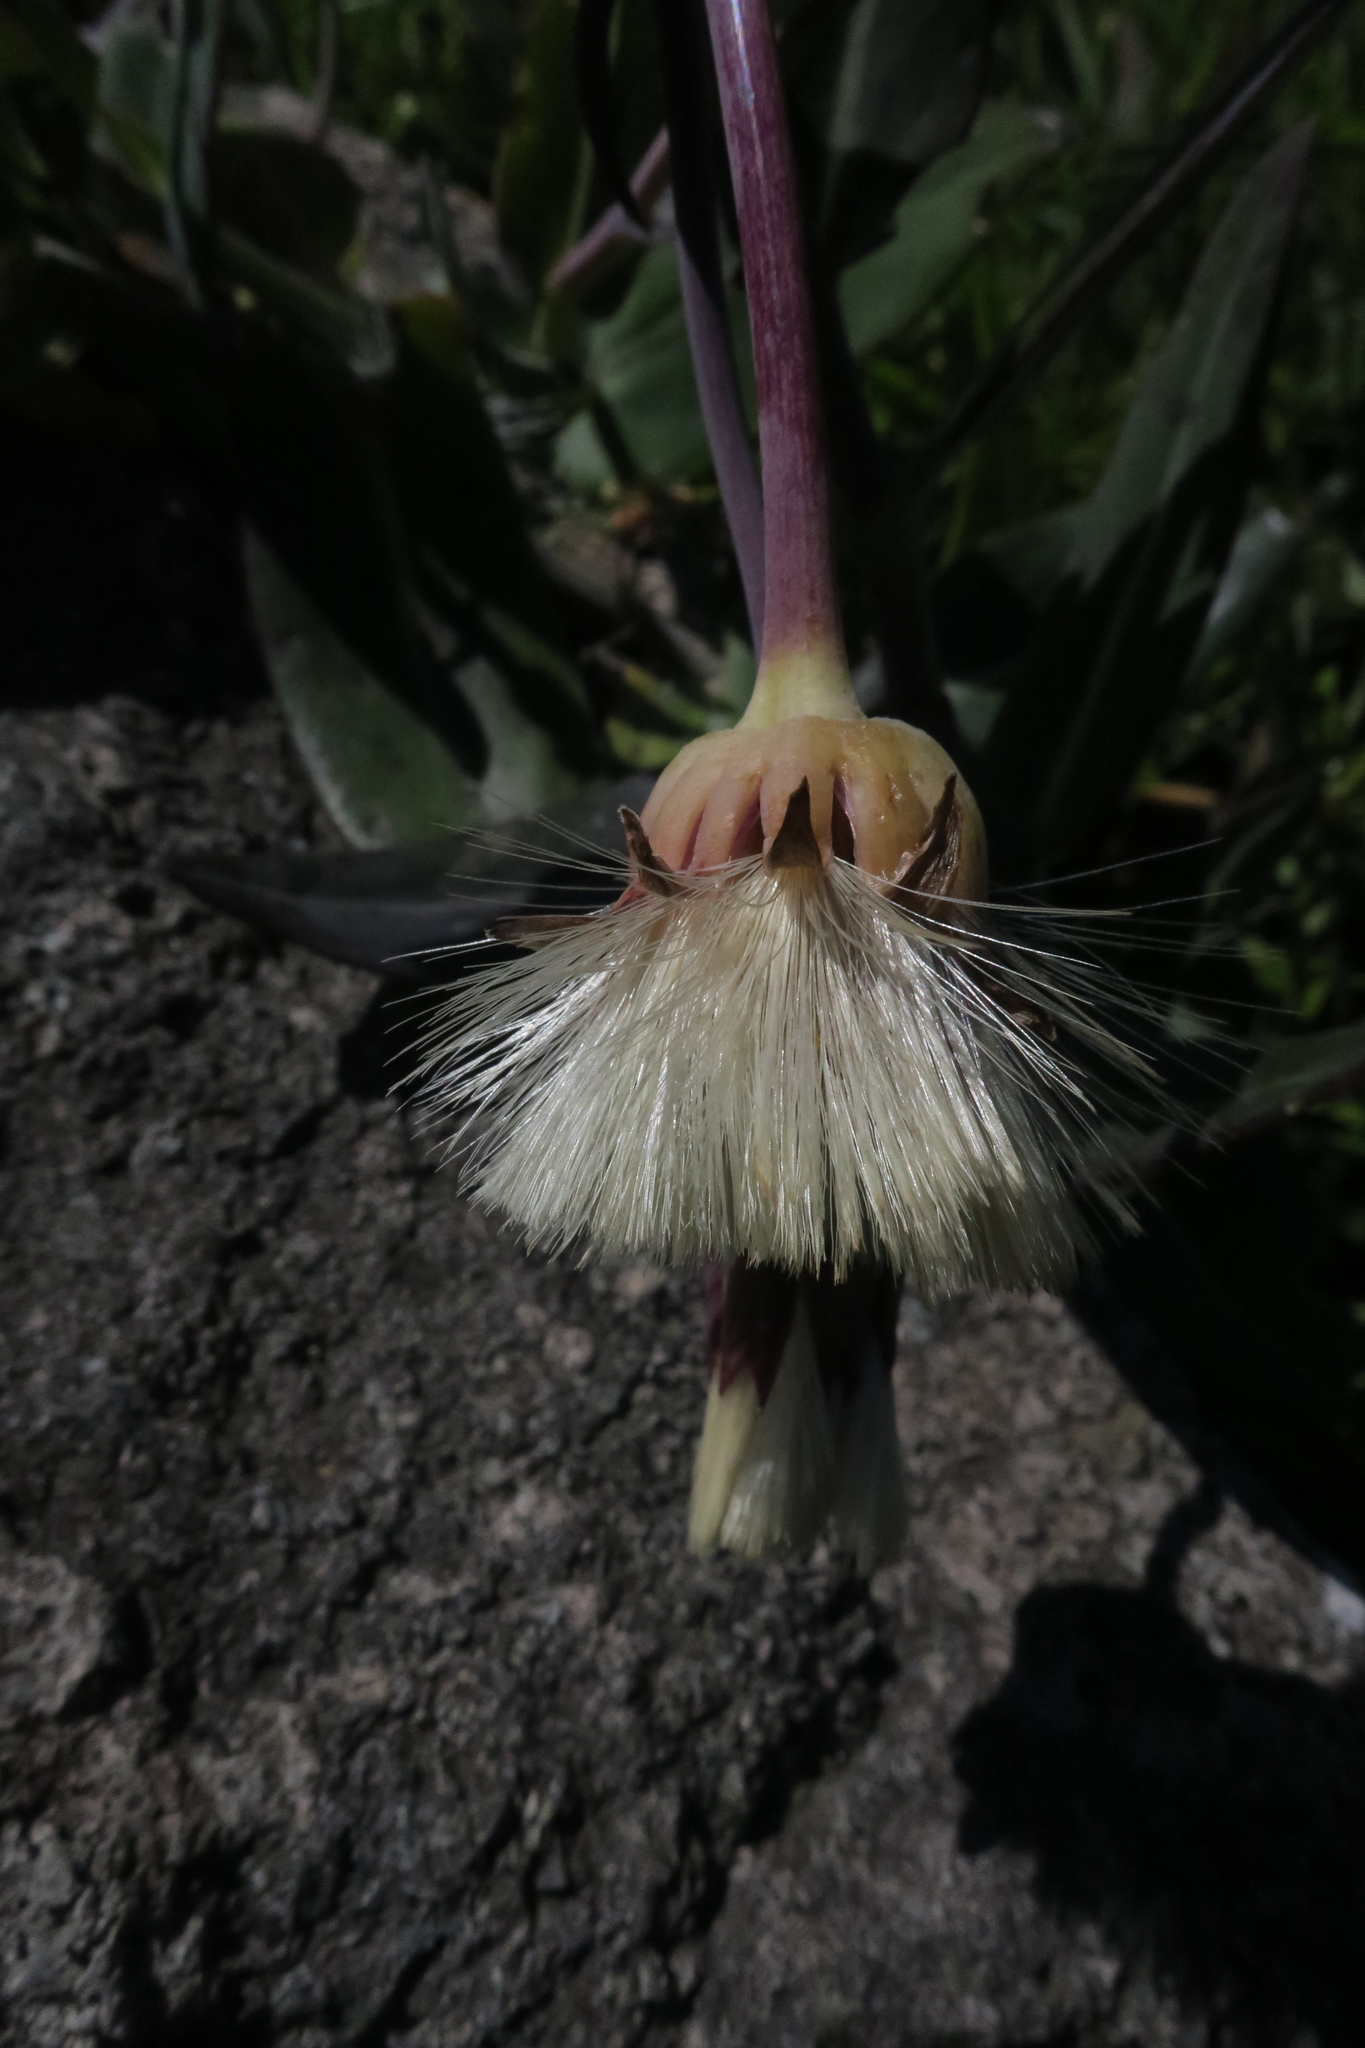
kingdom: Plantae
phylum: Tracheophyta
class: Magnoliopsida
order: Asterales
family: Asteraceae
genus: Othonna
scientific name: Othonna undulosa
